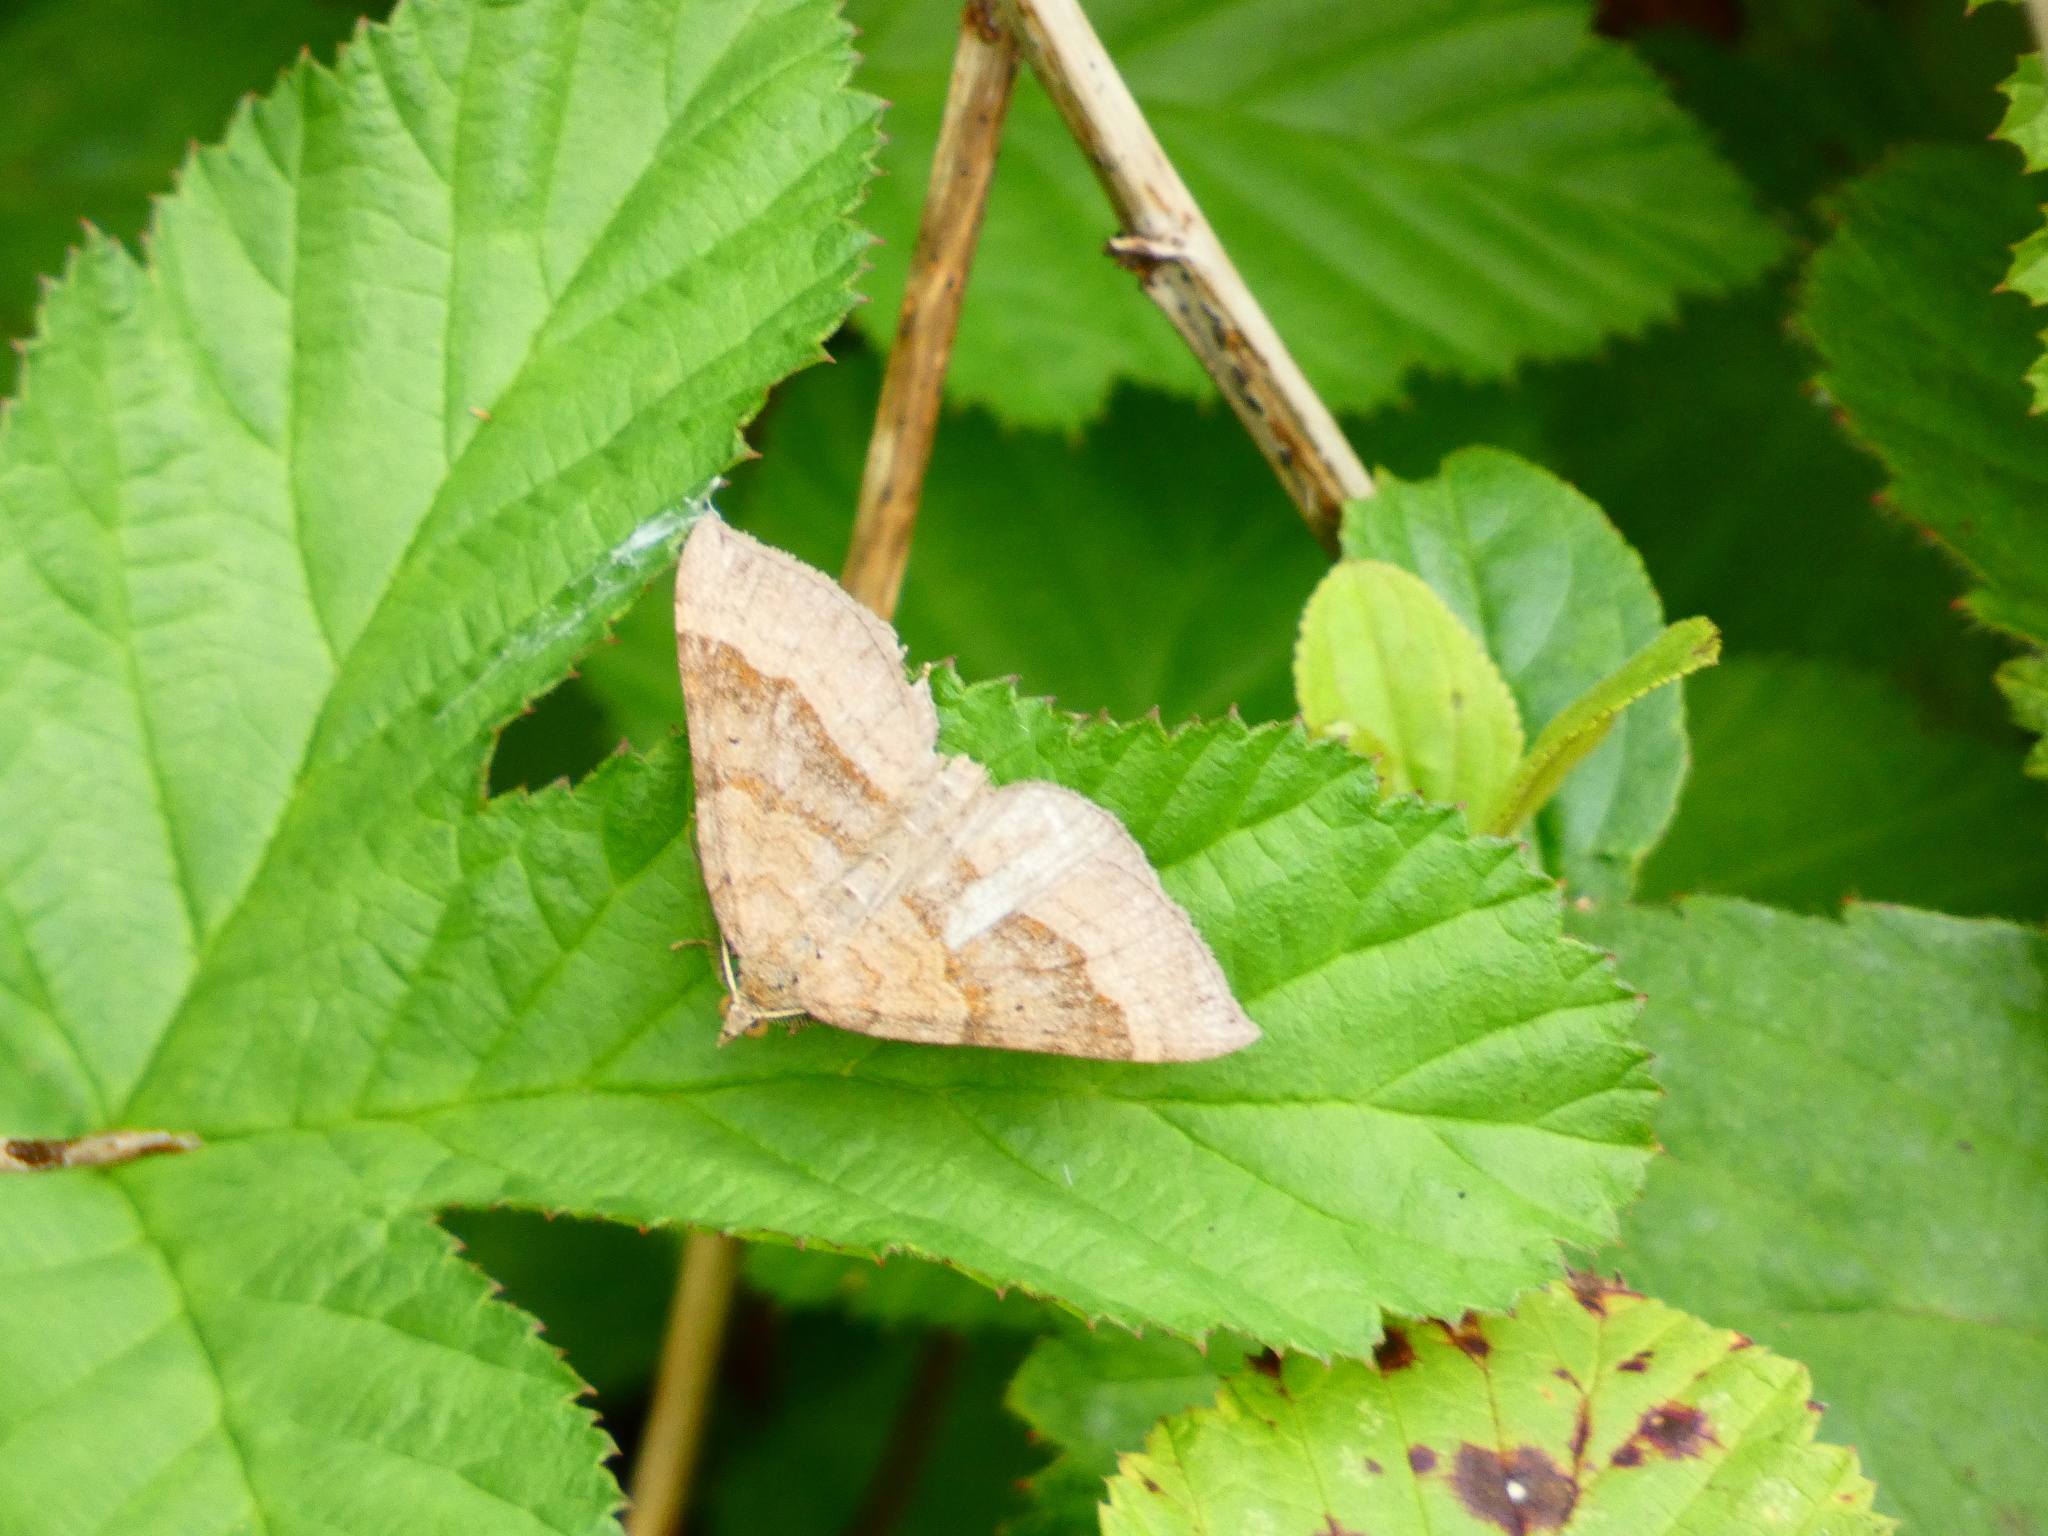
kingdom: Animalia
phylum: Arthropoda
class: Insecta
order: Lepidoptera
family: Geometridae
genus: Scotopteryx
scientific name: Scotopteryx chenopodiata
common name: Shaded broad-bar
